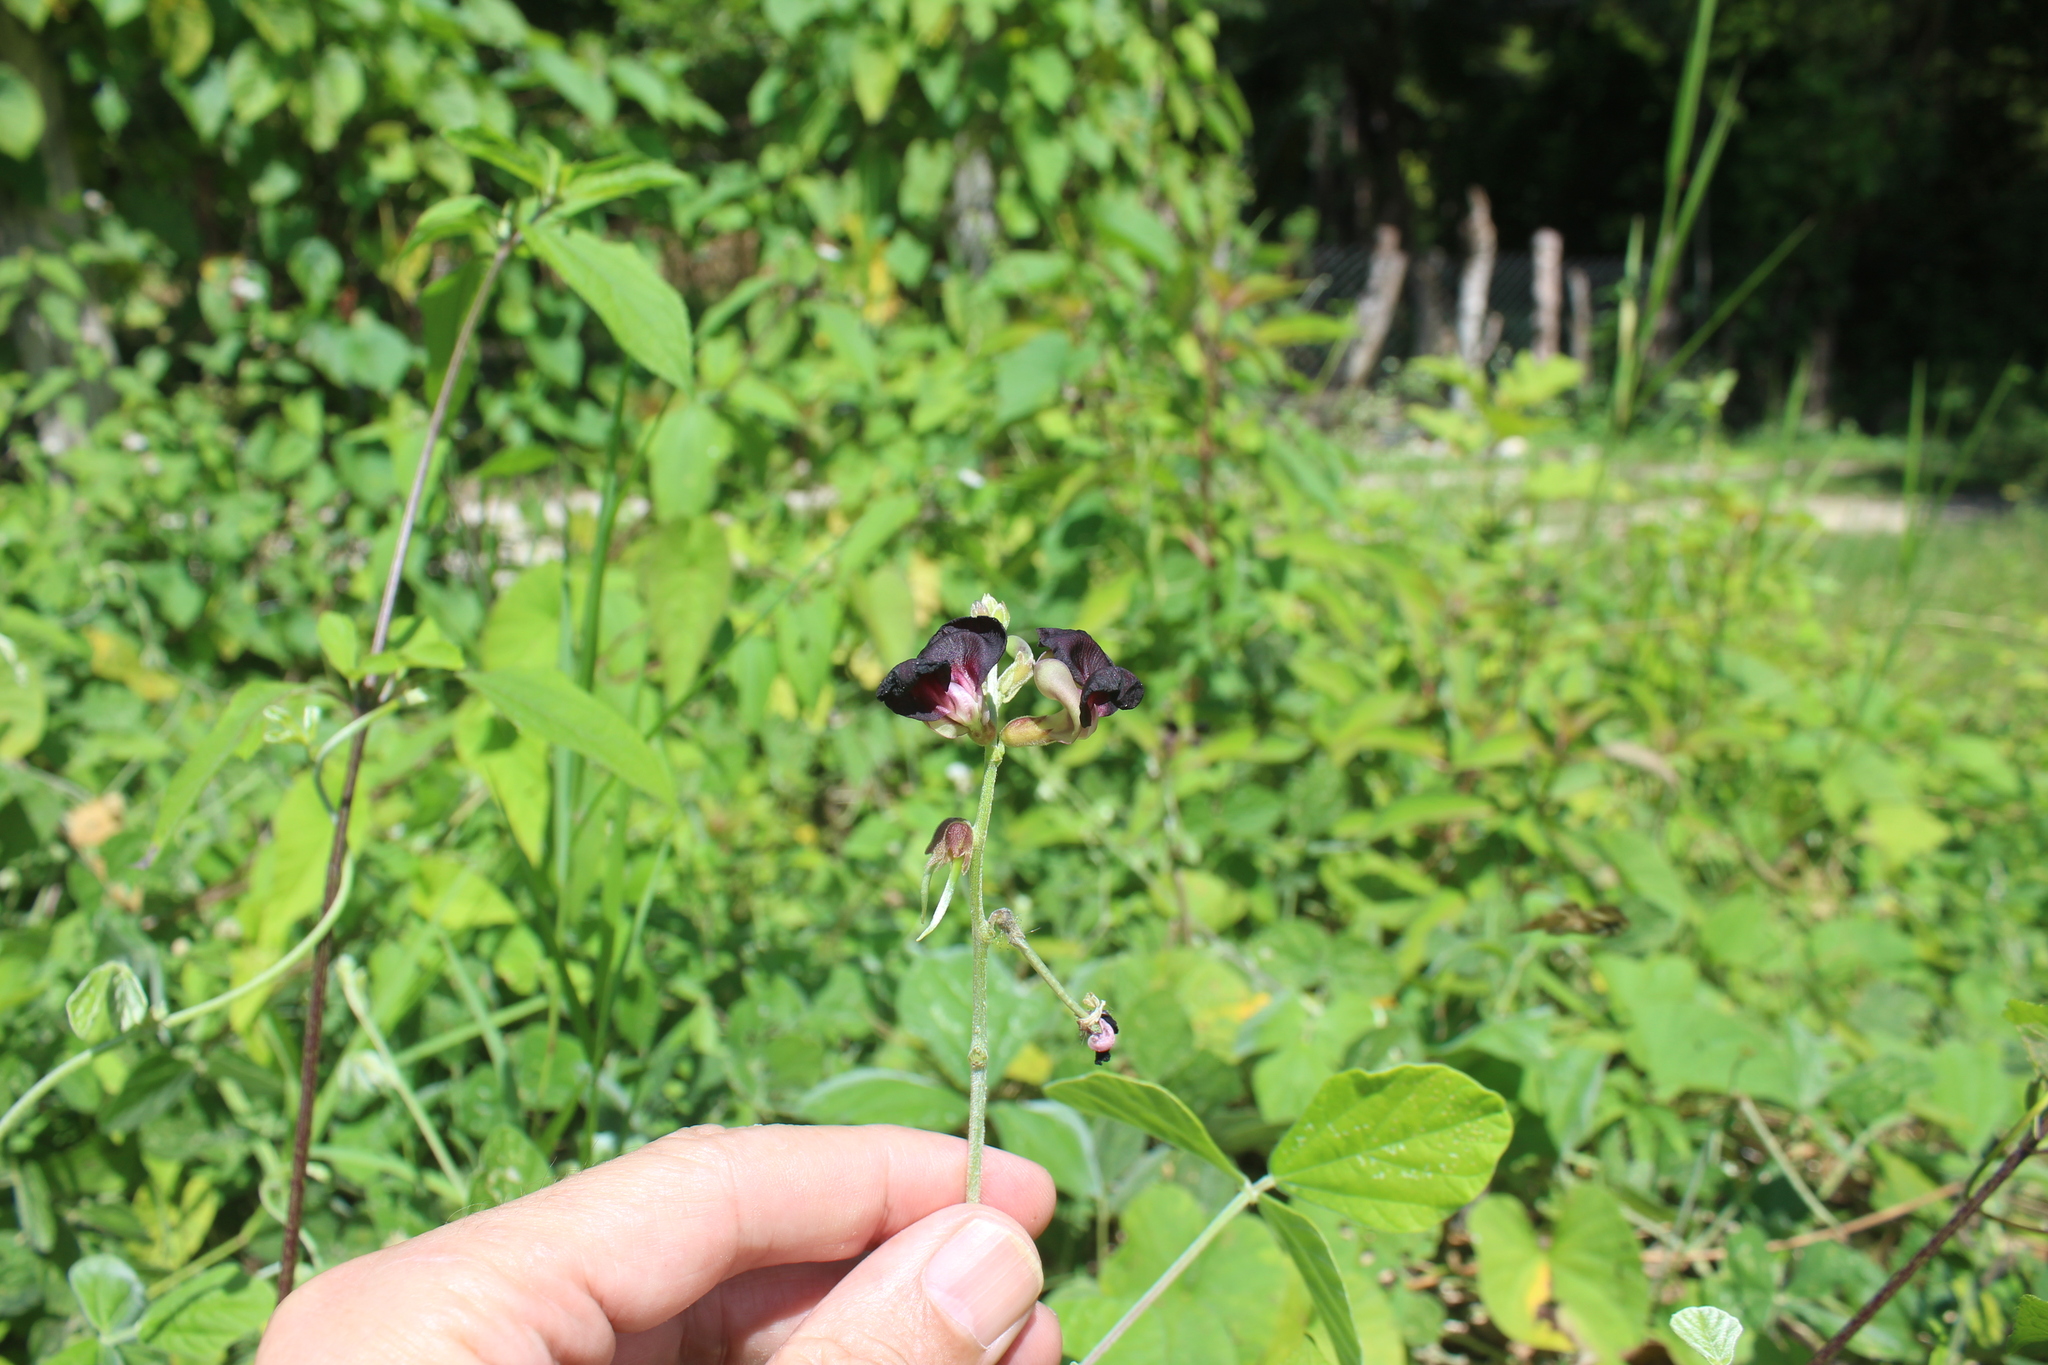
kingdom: Plantae
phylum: Tracheophyta
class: Magnoliopsida
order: Fabales
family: Fabaceae
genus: Macroptilium
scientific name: Macroptilium atropurpureum
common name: Purple bushbean
